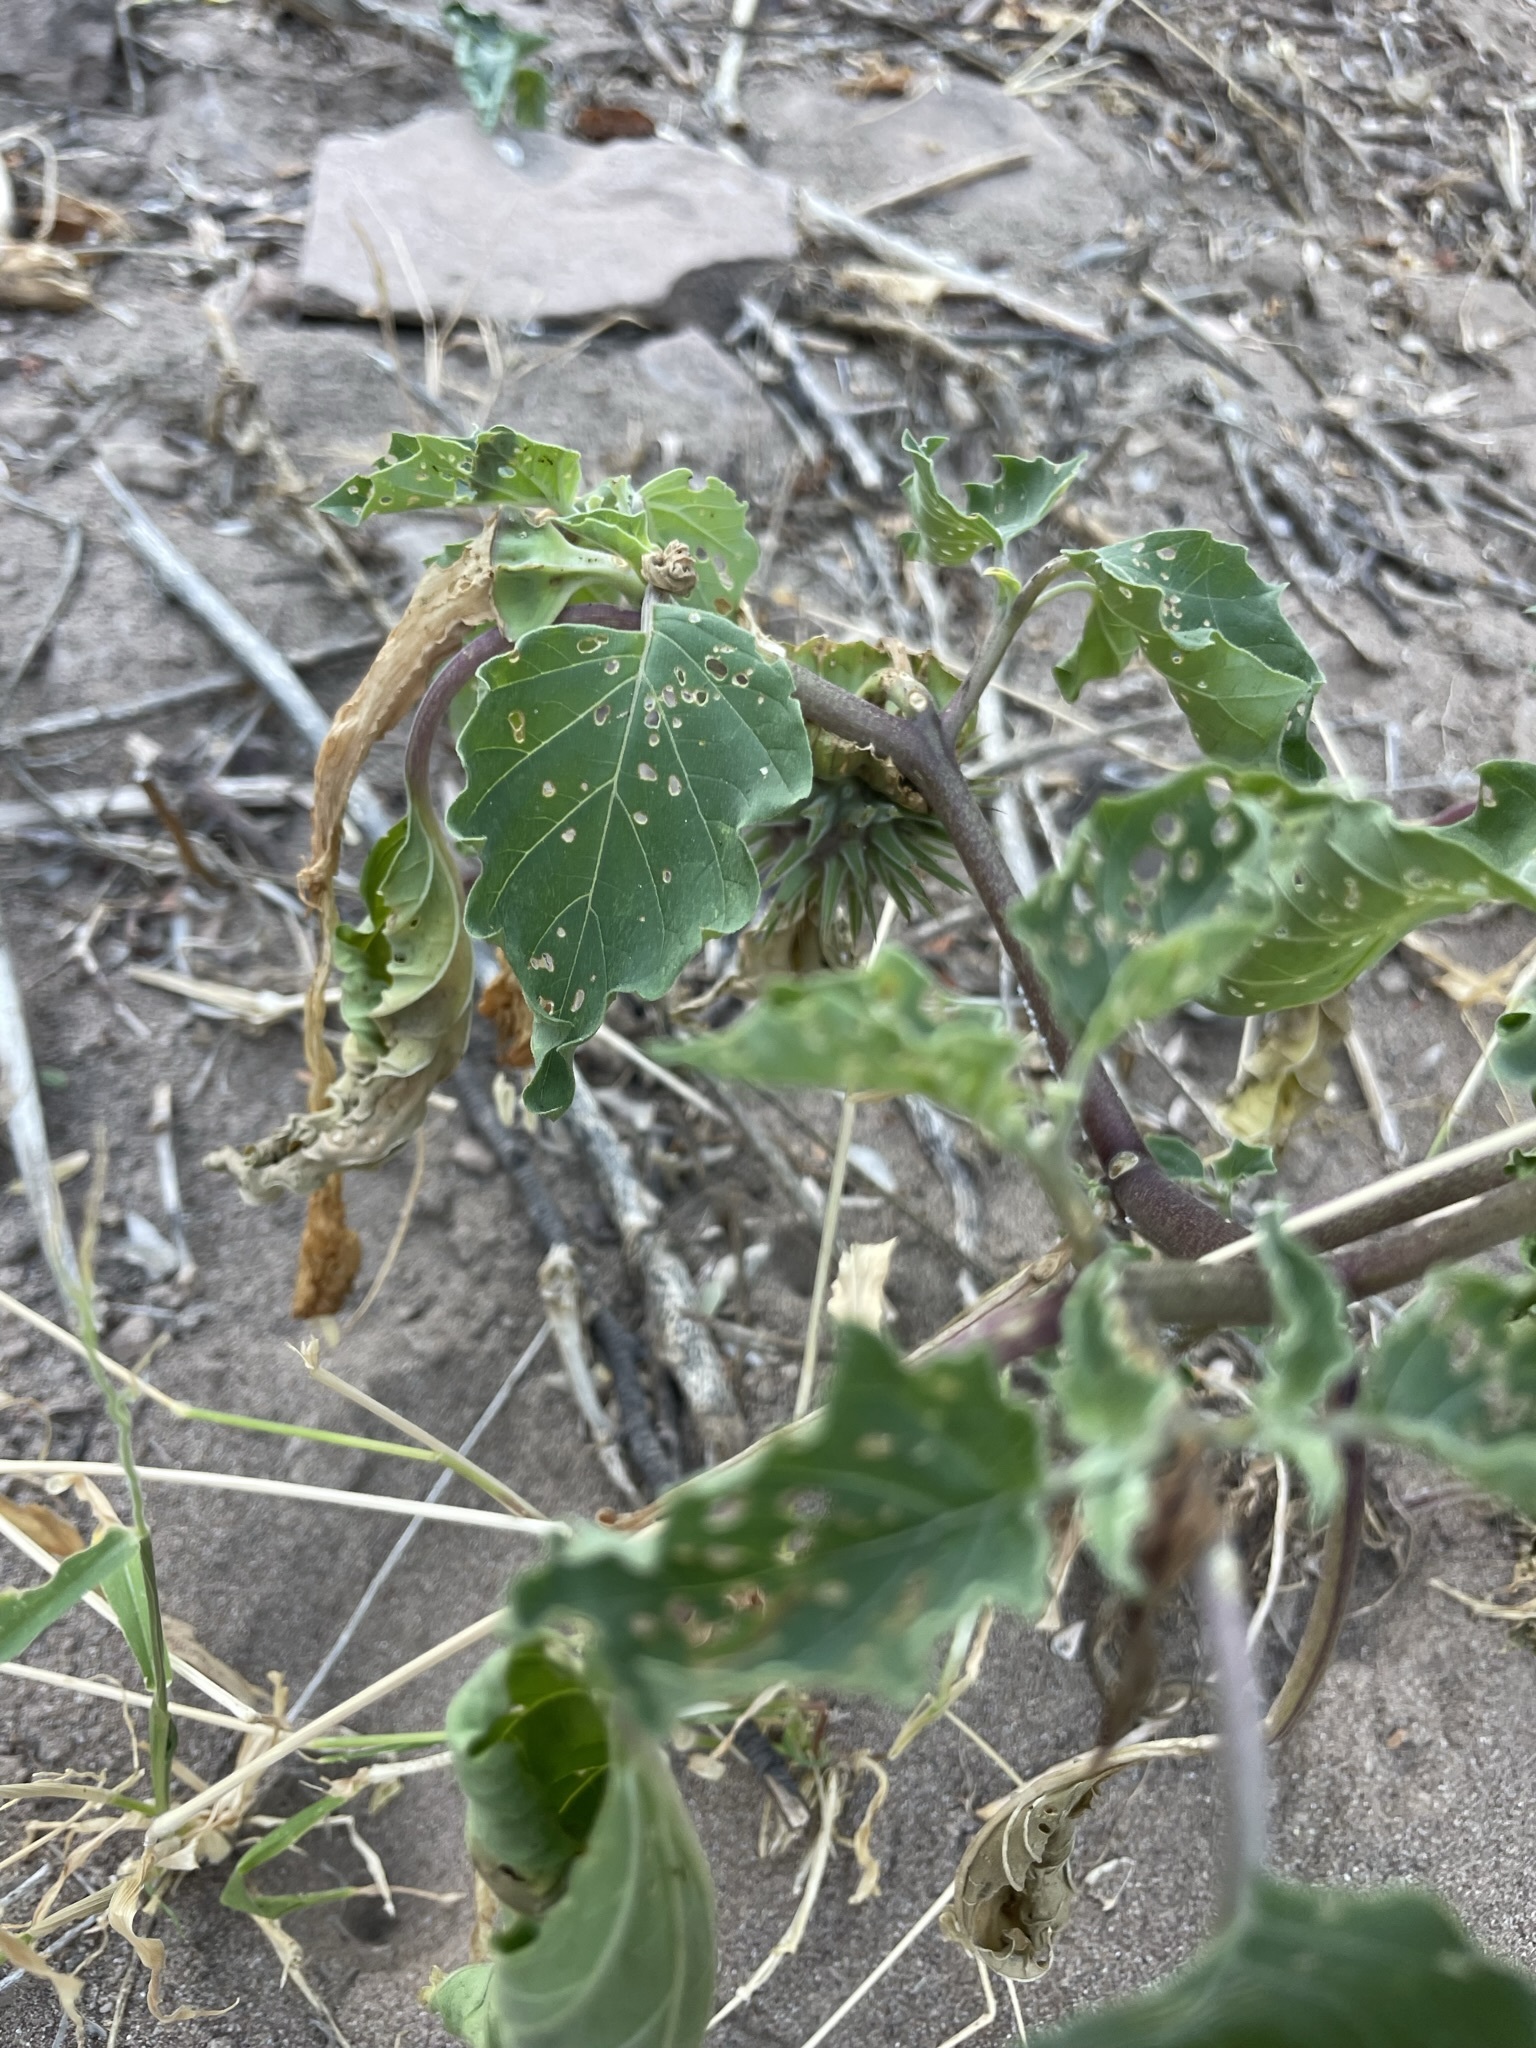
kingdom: Plantae
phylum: Tracheophyta
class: Magnoliopsida
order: Solanales
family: Solanaceae
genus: Datura
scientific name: Datura discolor
